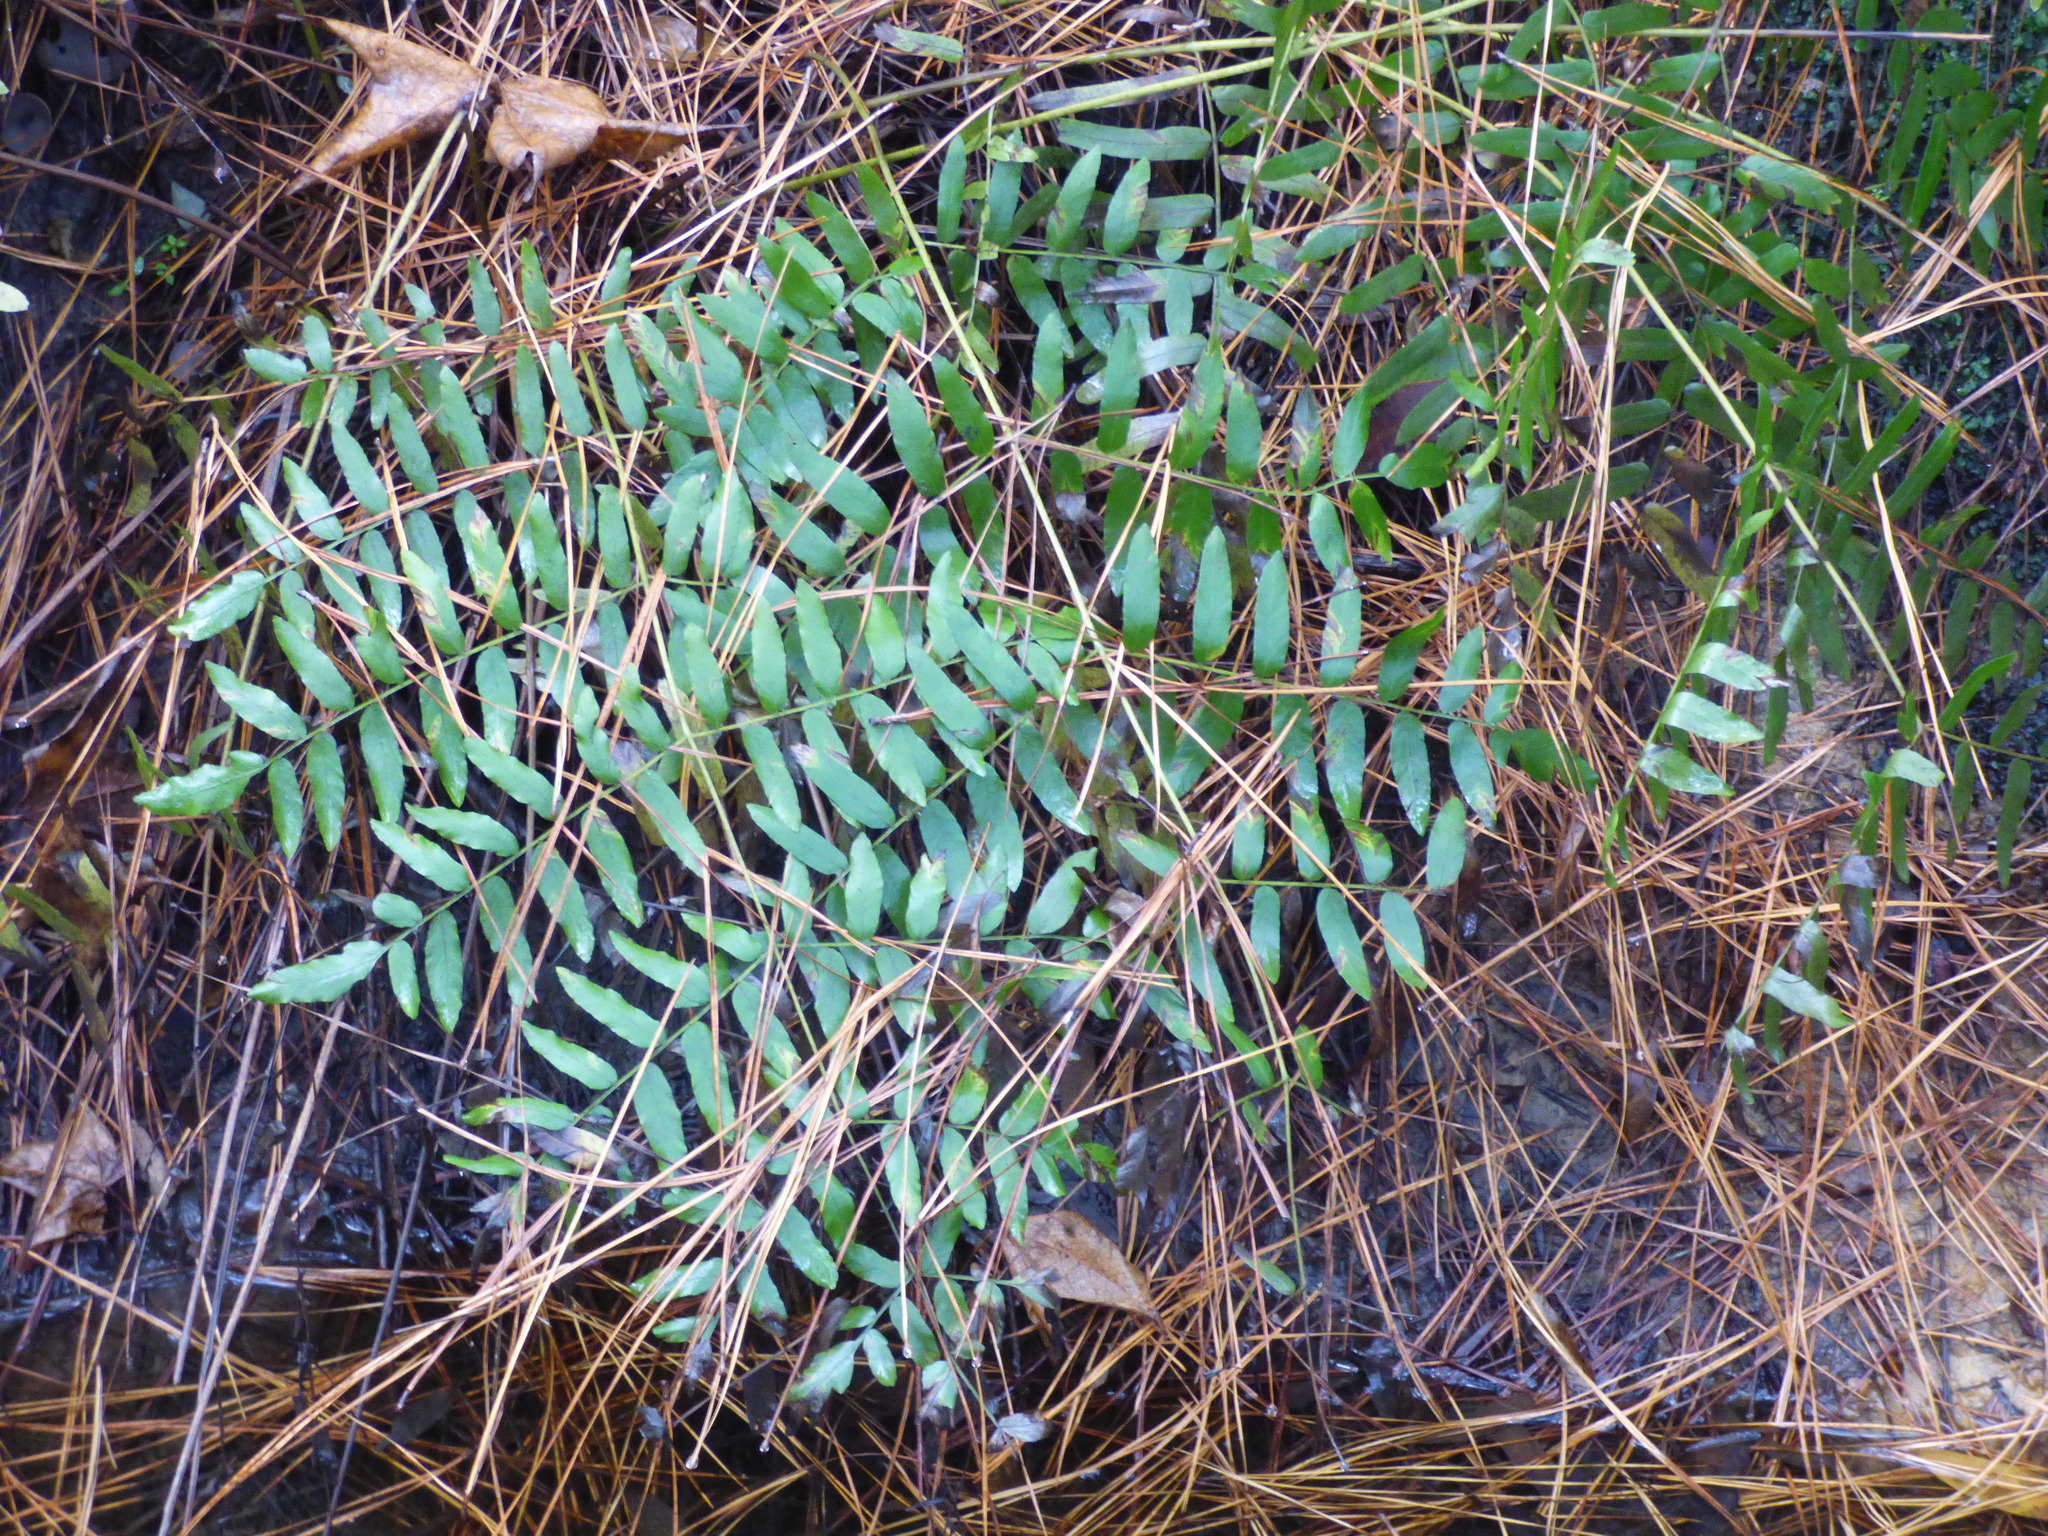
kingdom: Plantae
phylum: Tracheophyta
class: Polypodiopsida
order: Osmundales
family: Osmundaceae
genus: Osmunda
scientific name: Osmunda spectabilis
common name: American royal fern
